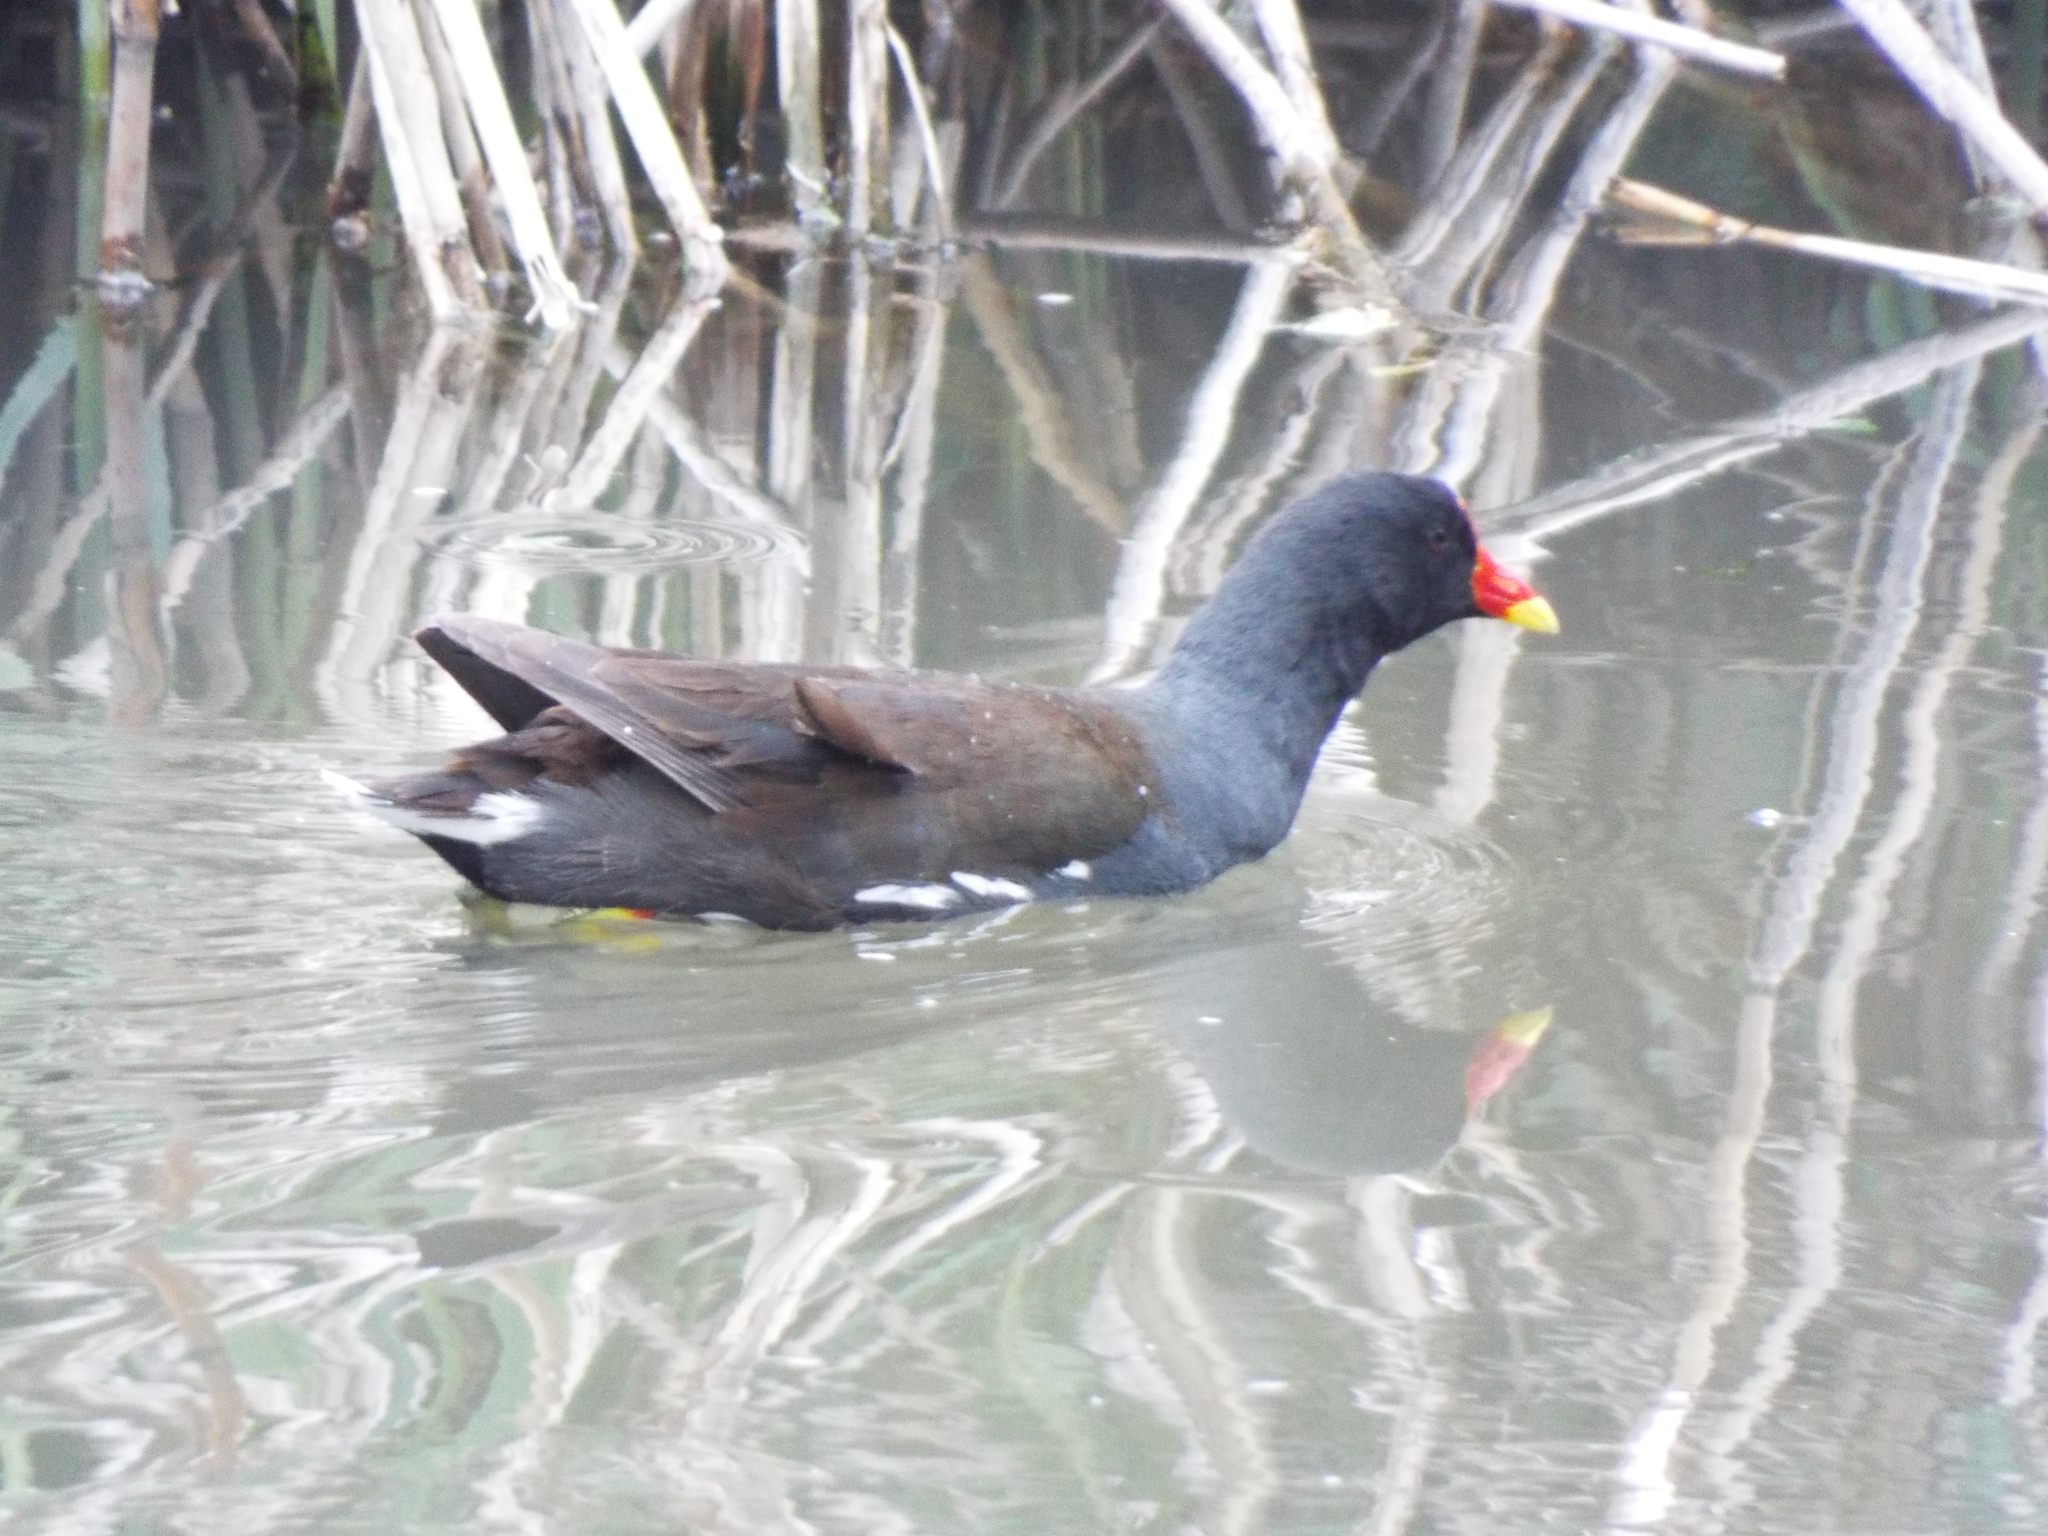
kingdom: Animalia
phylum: Chordata
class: Aves
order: Gruiformes
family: Rallidae
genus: Gallinula
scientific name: Gallinula chloropus
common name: Common moorhen
